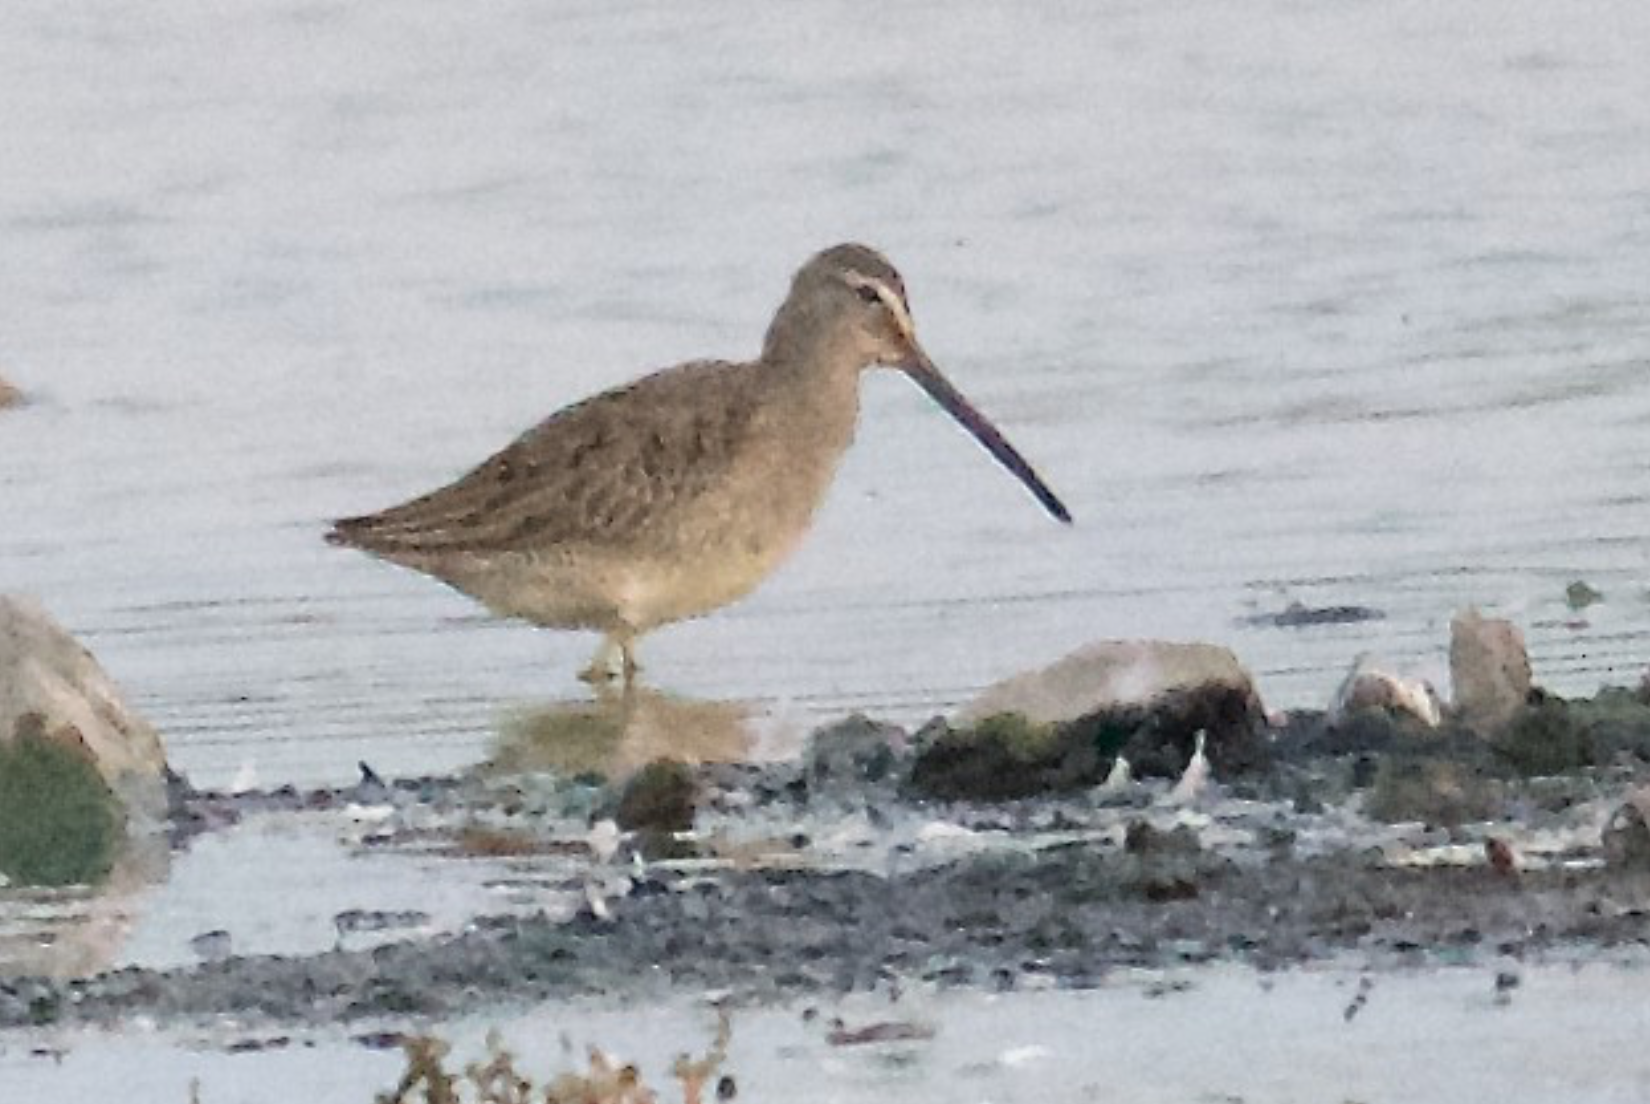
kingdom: Animalia
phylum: Chordata
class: Aves
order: Charadriiformes
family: Scolopacidae
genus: Limnodromus
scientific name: Limnodromus scolopaceus
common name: Long-billed dowitcher
